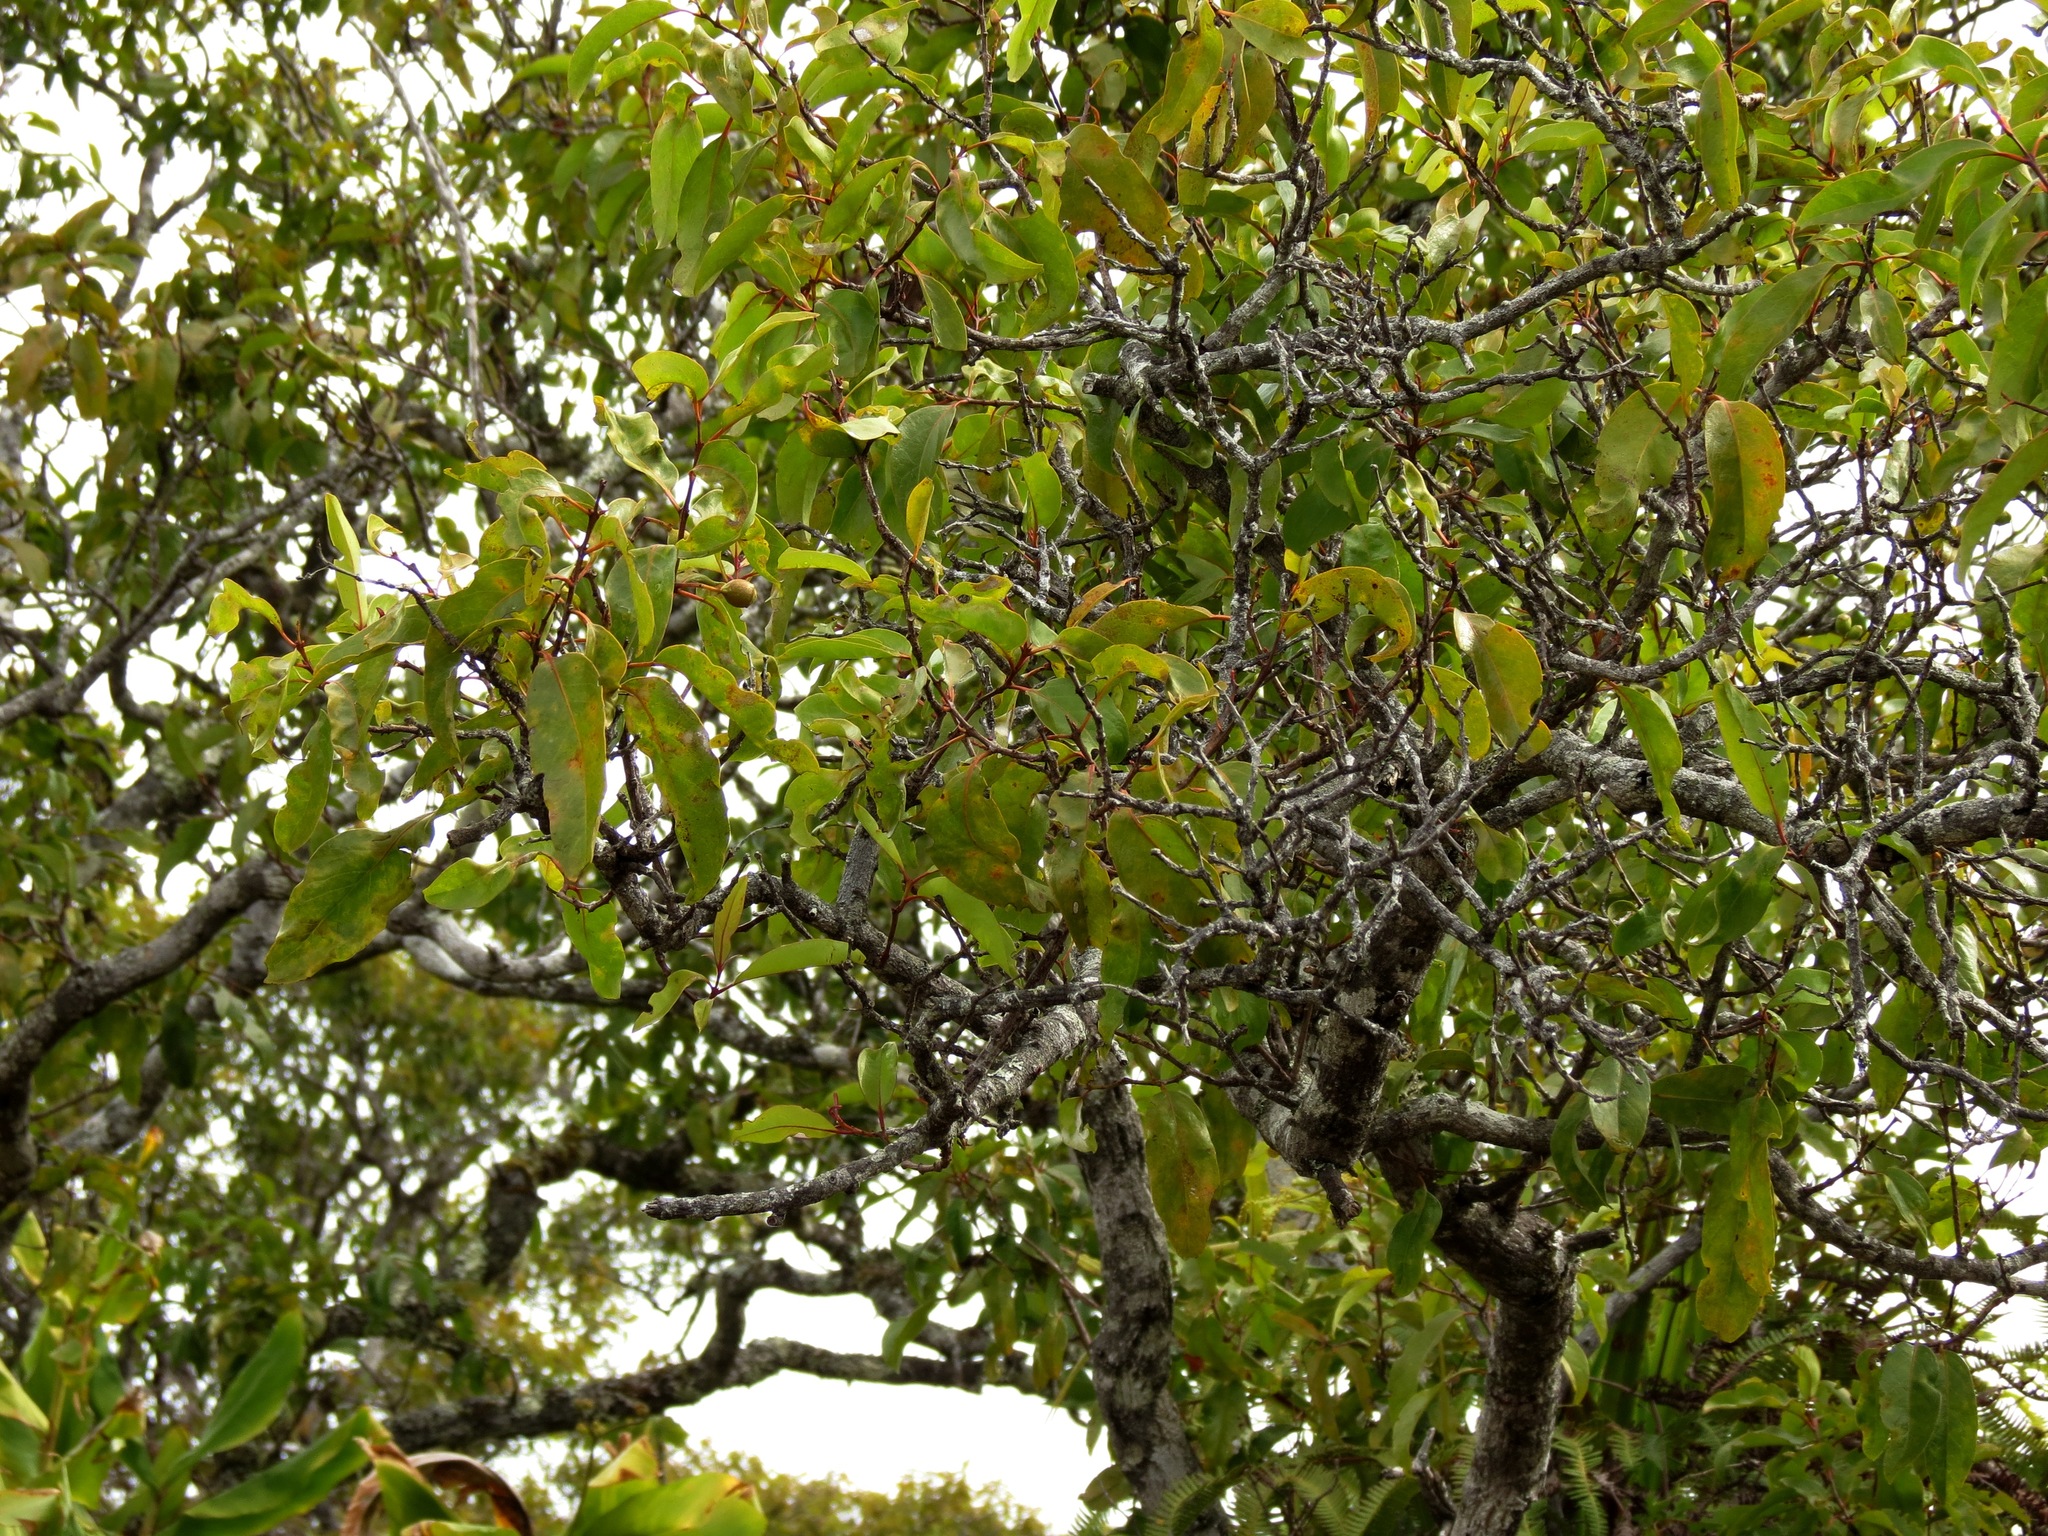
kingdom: Plantae
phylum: Tracheophyta
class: Magnoliopsida
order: Santalales
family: Santalaceae
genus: Santalum
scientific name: Santalum freycinetianum
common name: Lanai sandalwood
